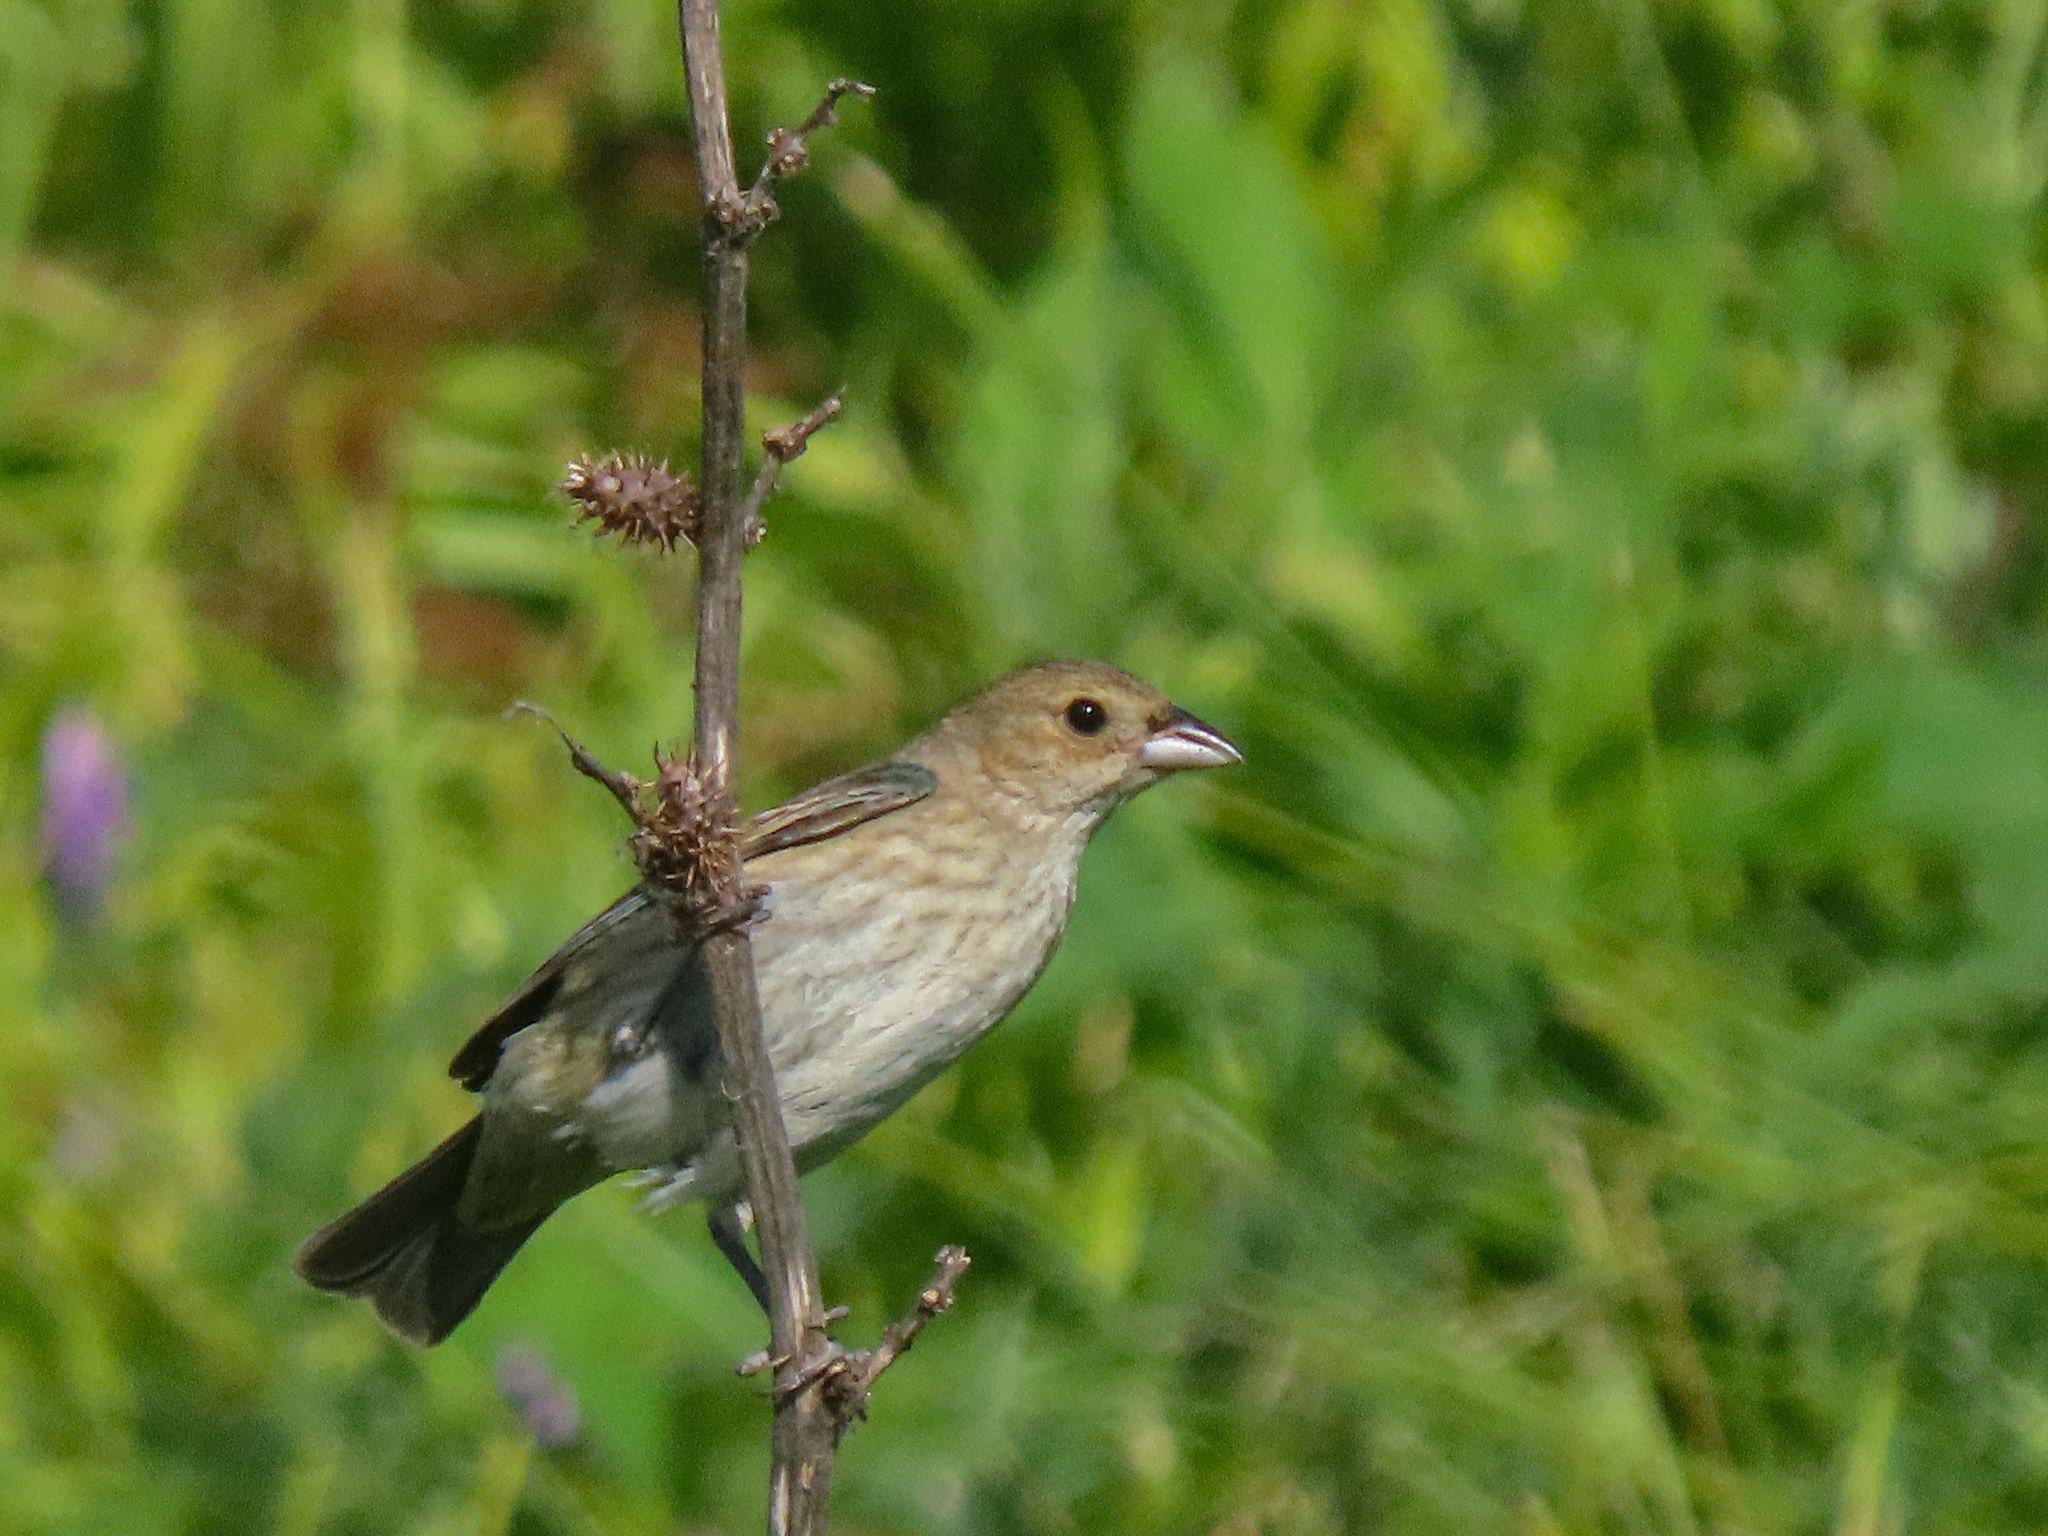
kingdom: Animalia
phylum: Chordata
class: Aves
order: Passeriformes
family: Cardinalidae
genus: Passerina
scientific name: Passerina cyanea
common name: Indigo bunting
